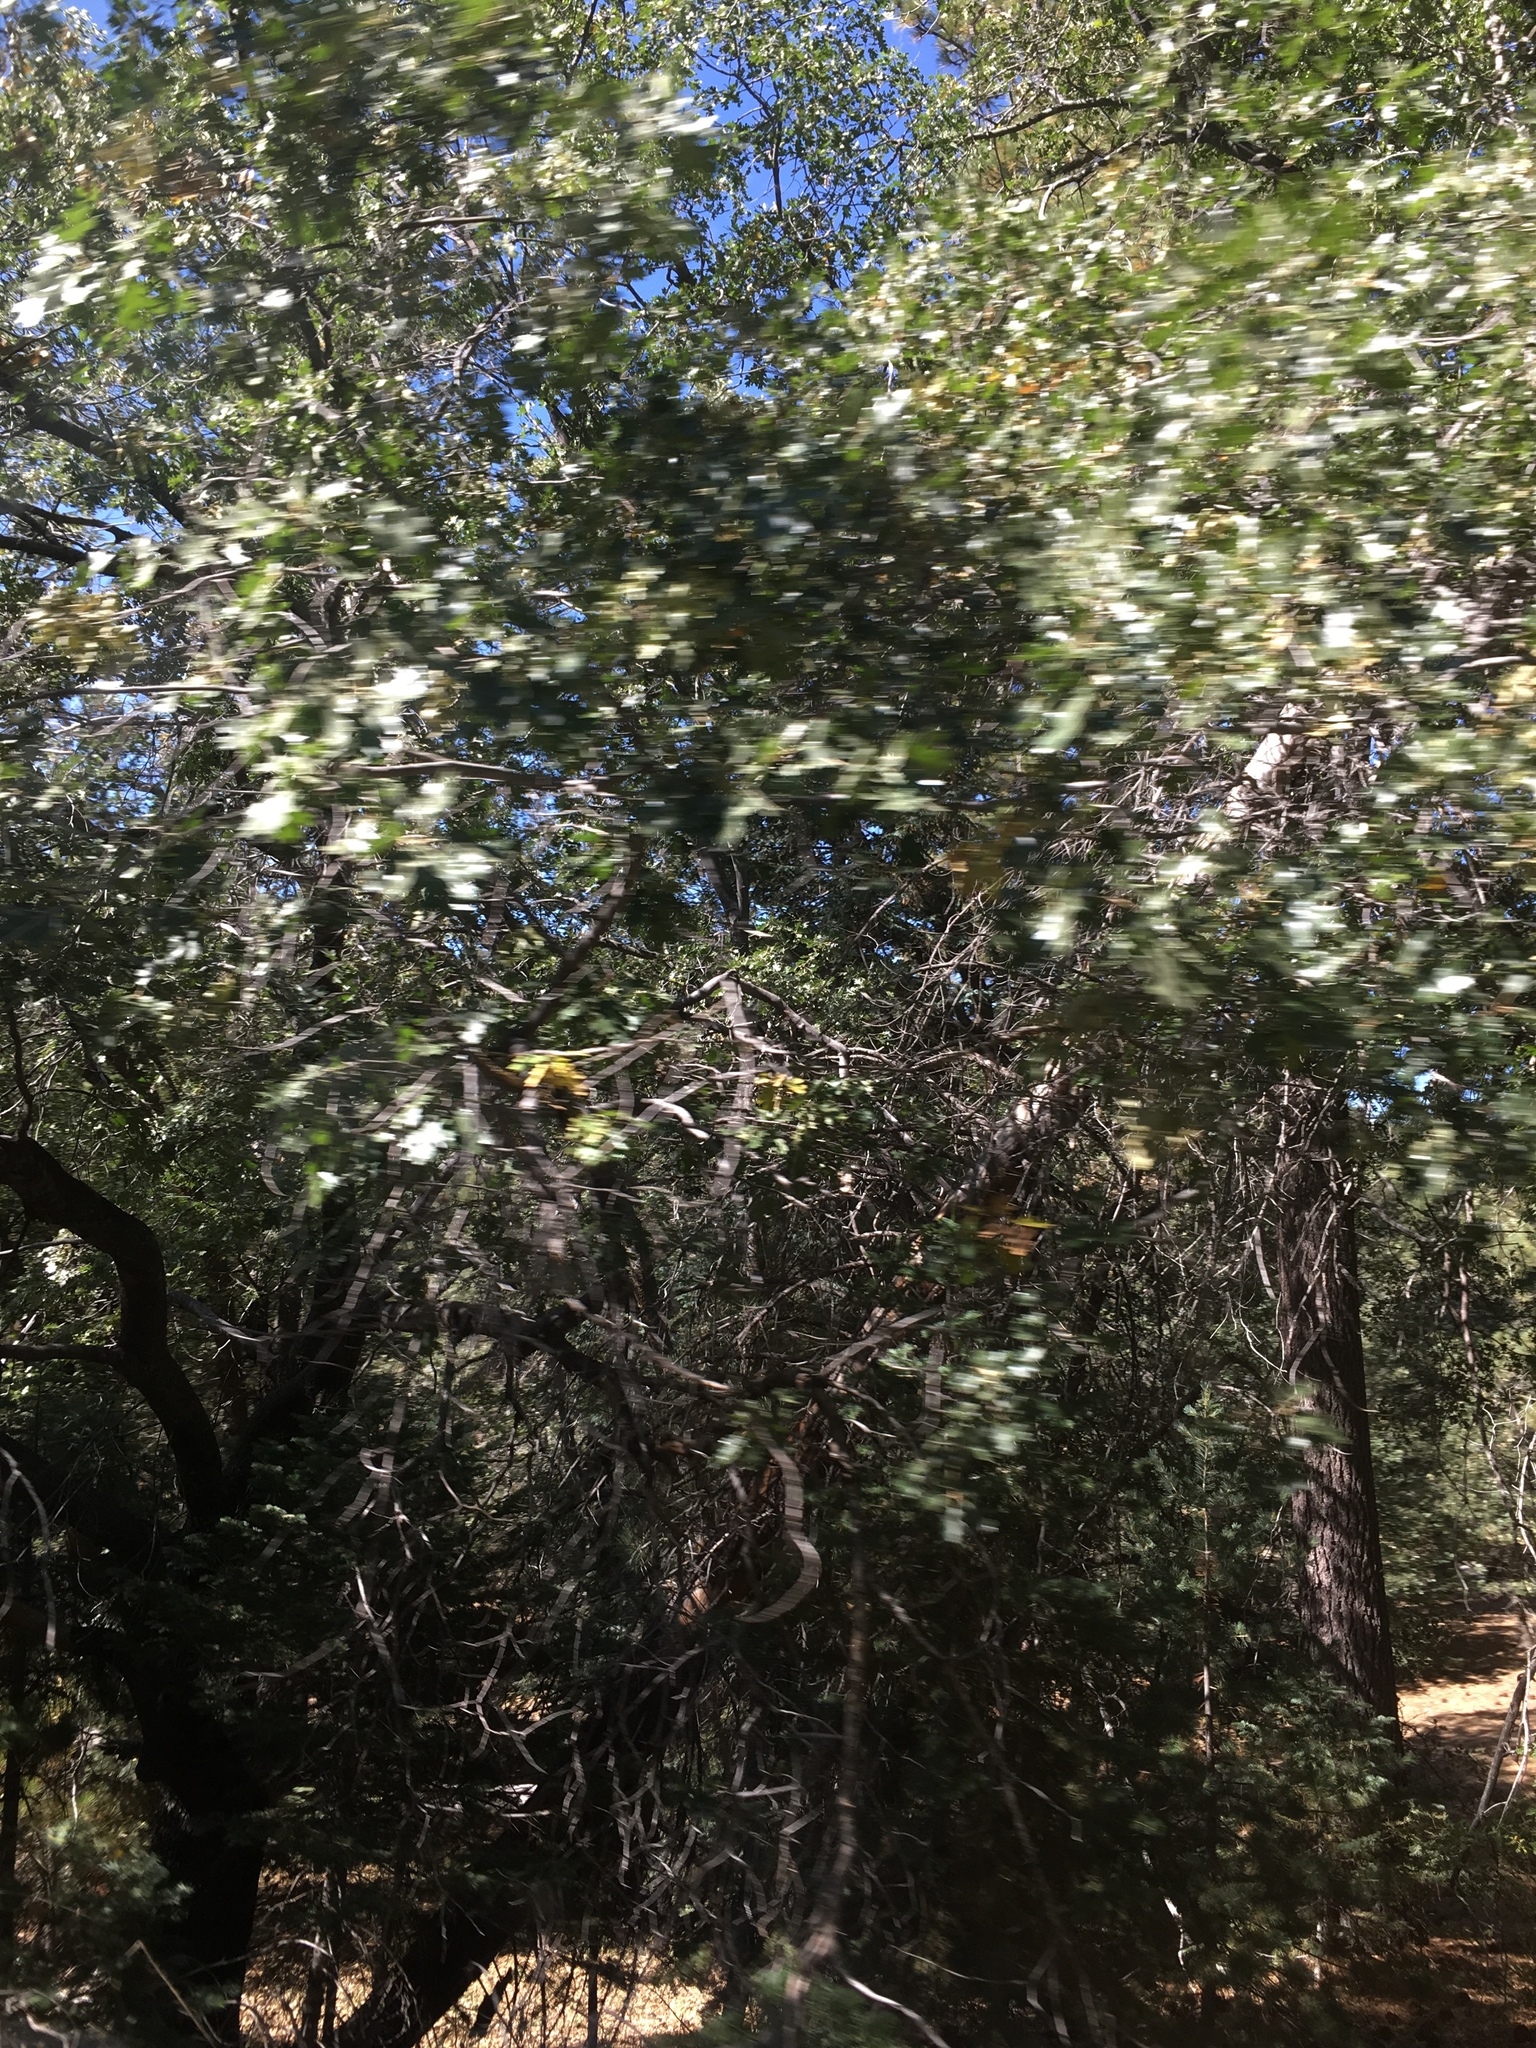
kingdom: Plantae
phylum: Tracheophyta
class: Magnoliopsida
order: Fagales
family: Fagaceae
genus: Quercus
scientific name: Quercus kelloggii
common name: California black oak
